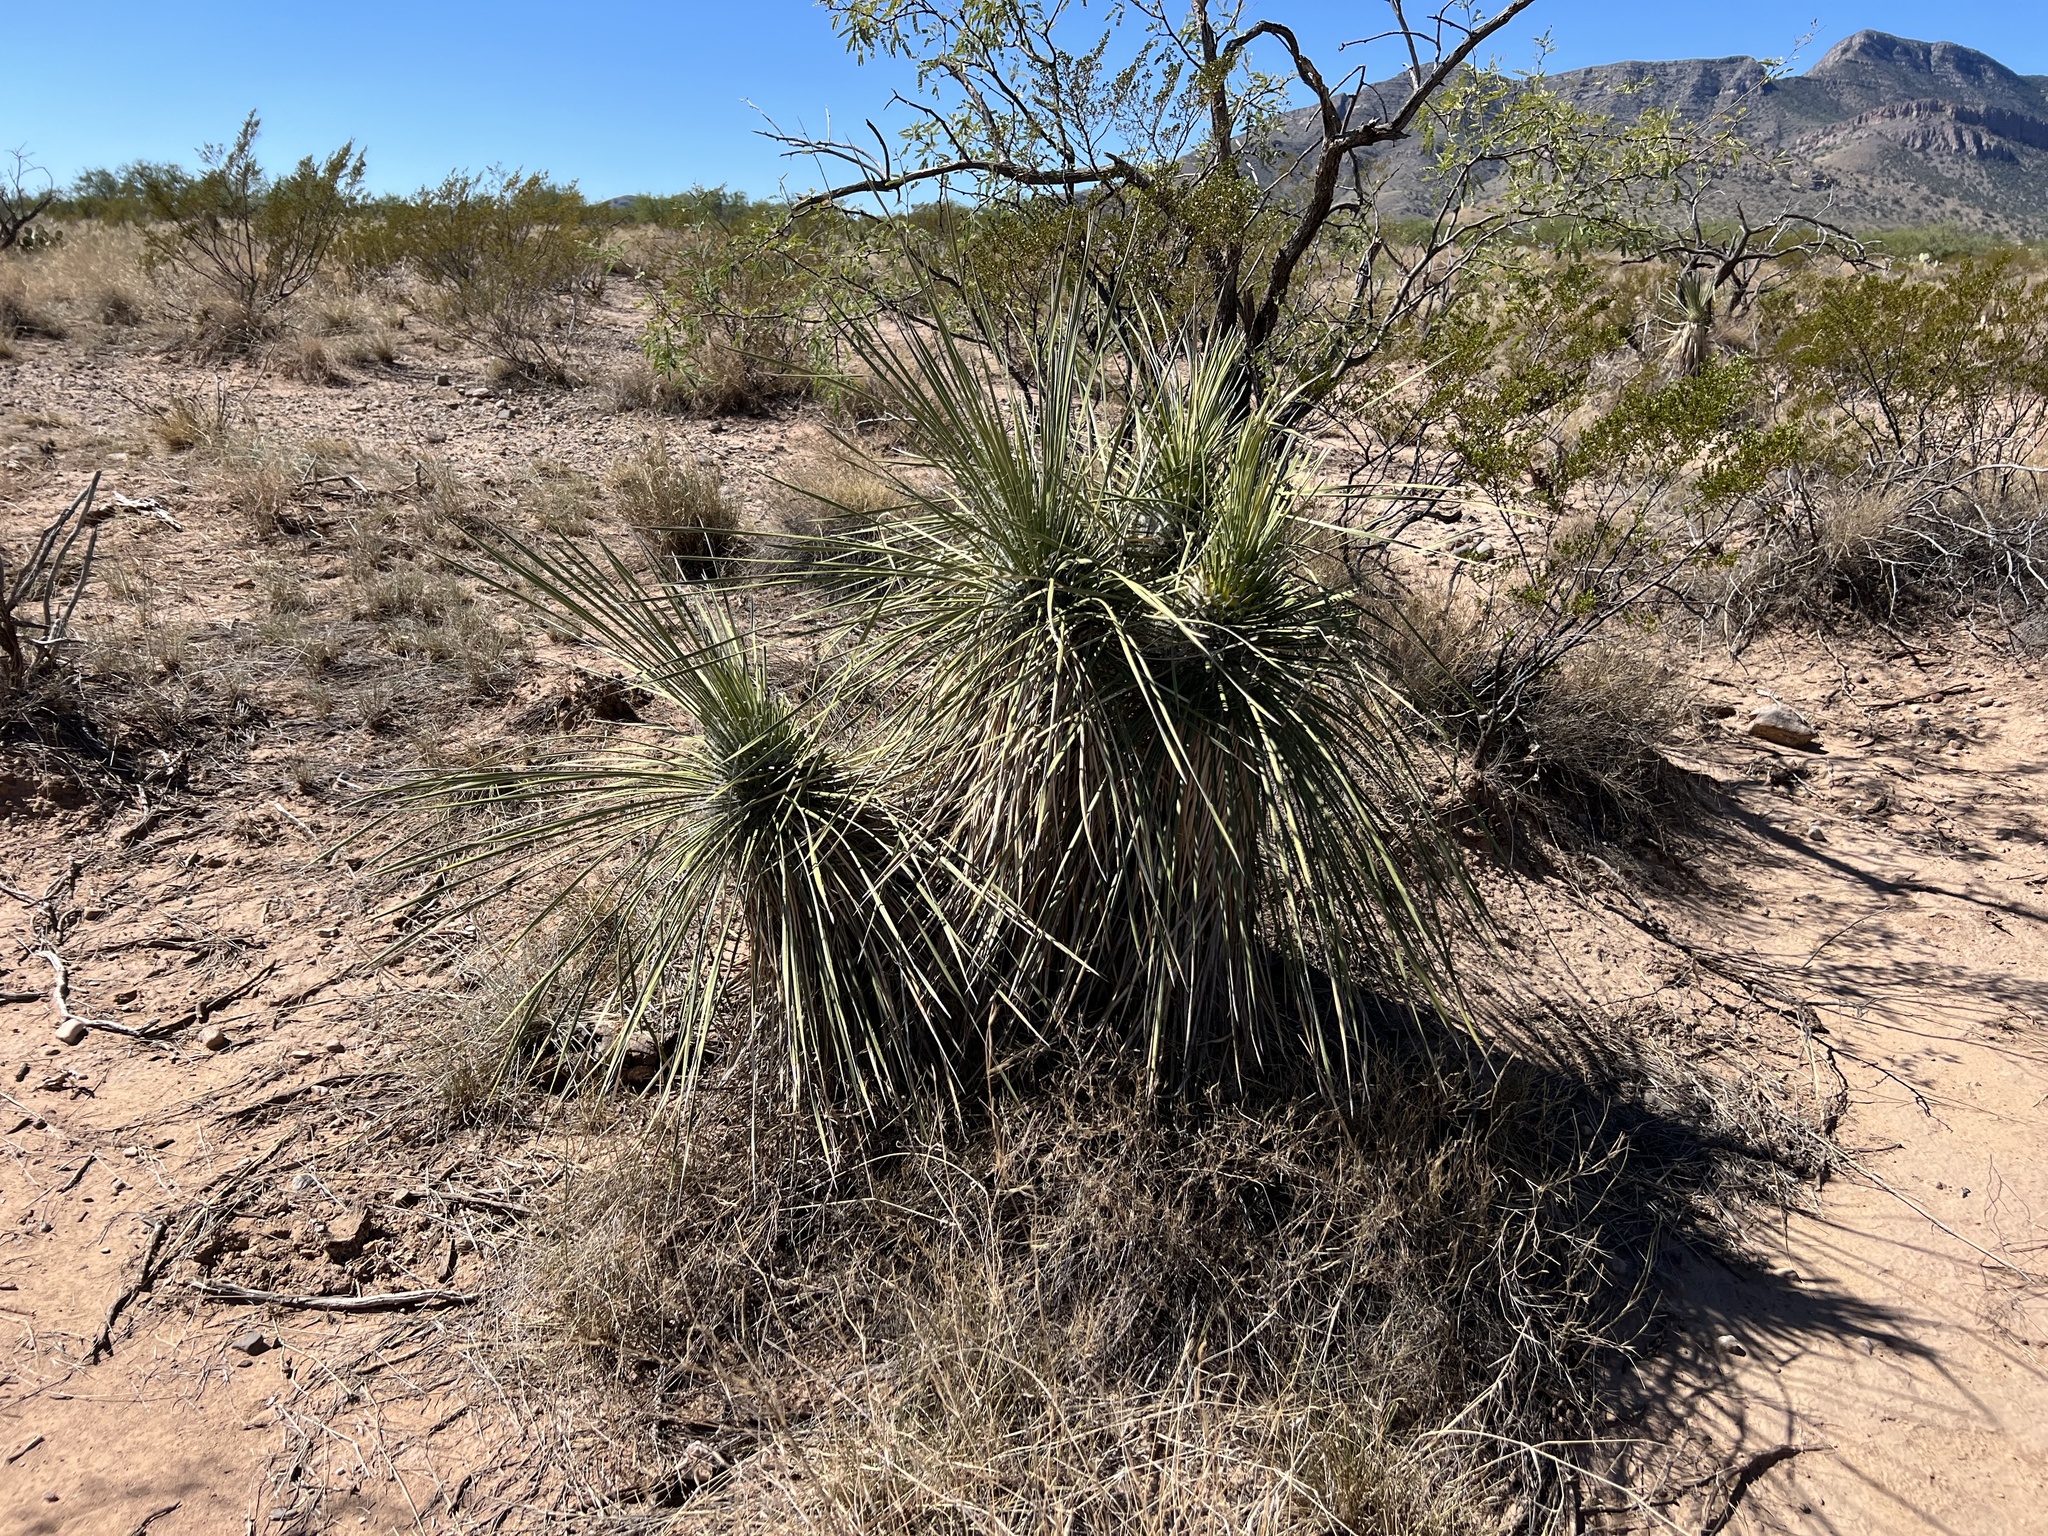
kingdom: Plantae
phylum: Tracheophyta
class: Liliopsida
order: Asparagales
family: Asparagaceae
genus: Yucca
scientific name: Yucca elata
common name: Palmella
